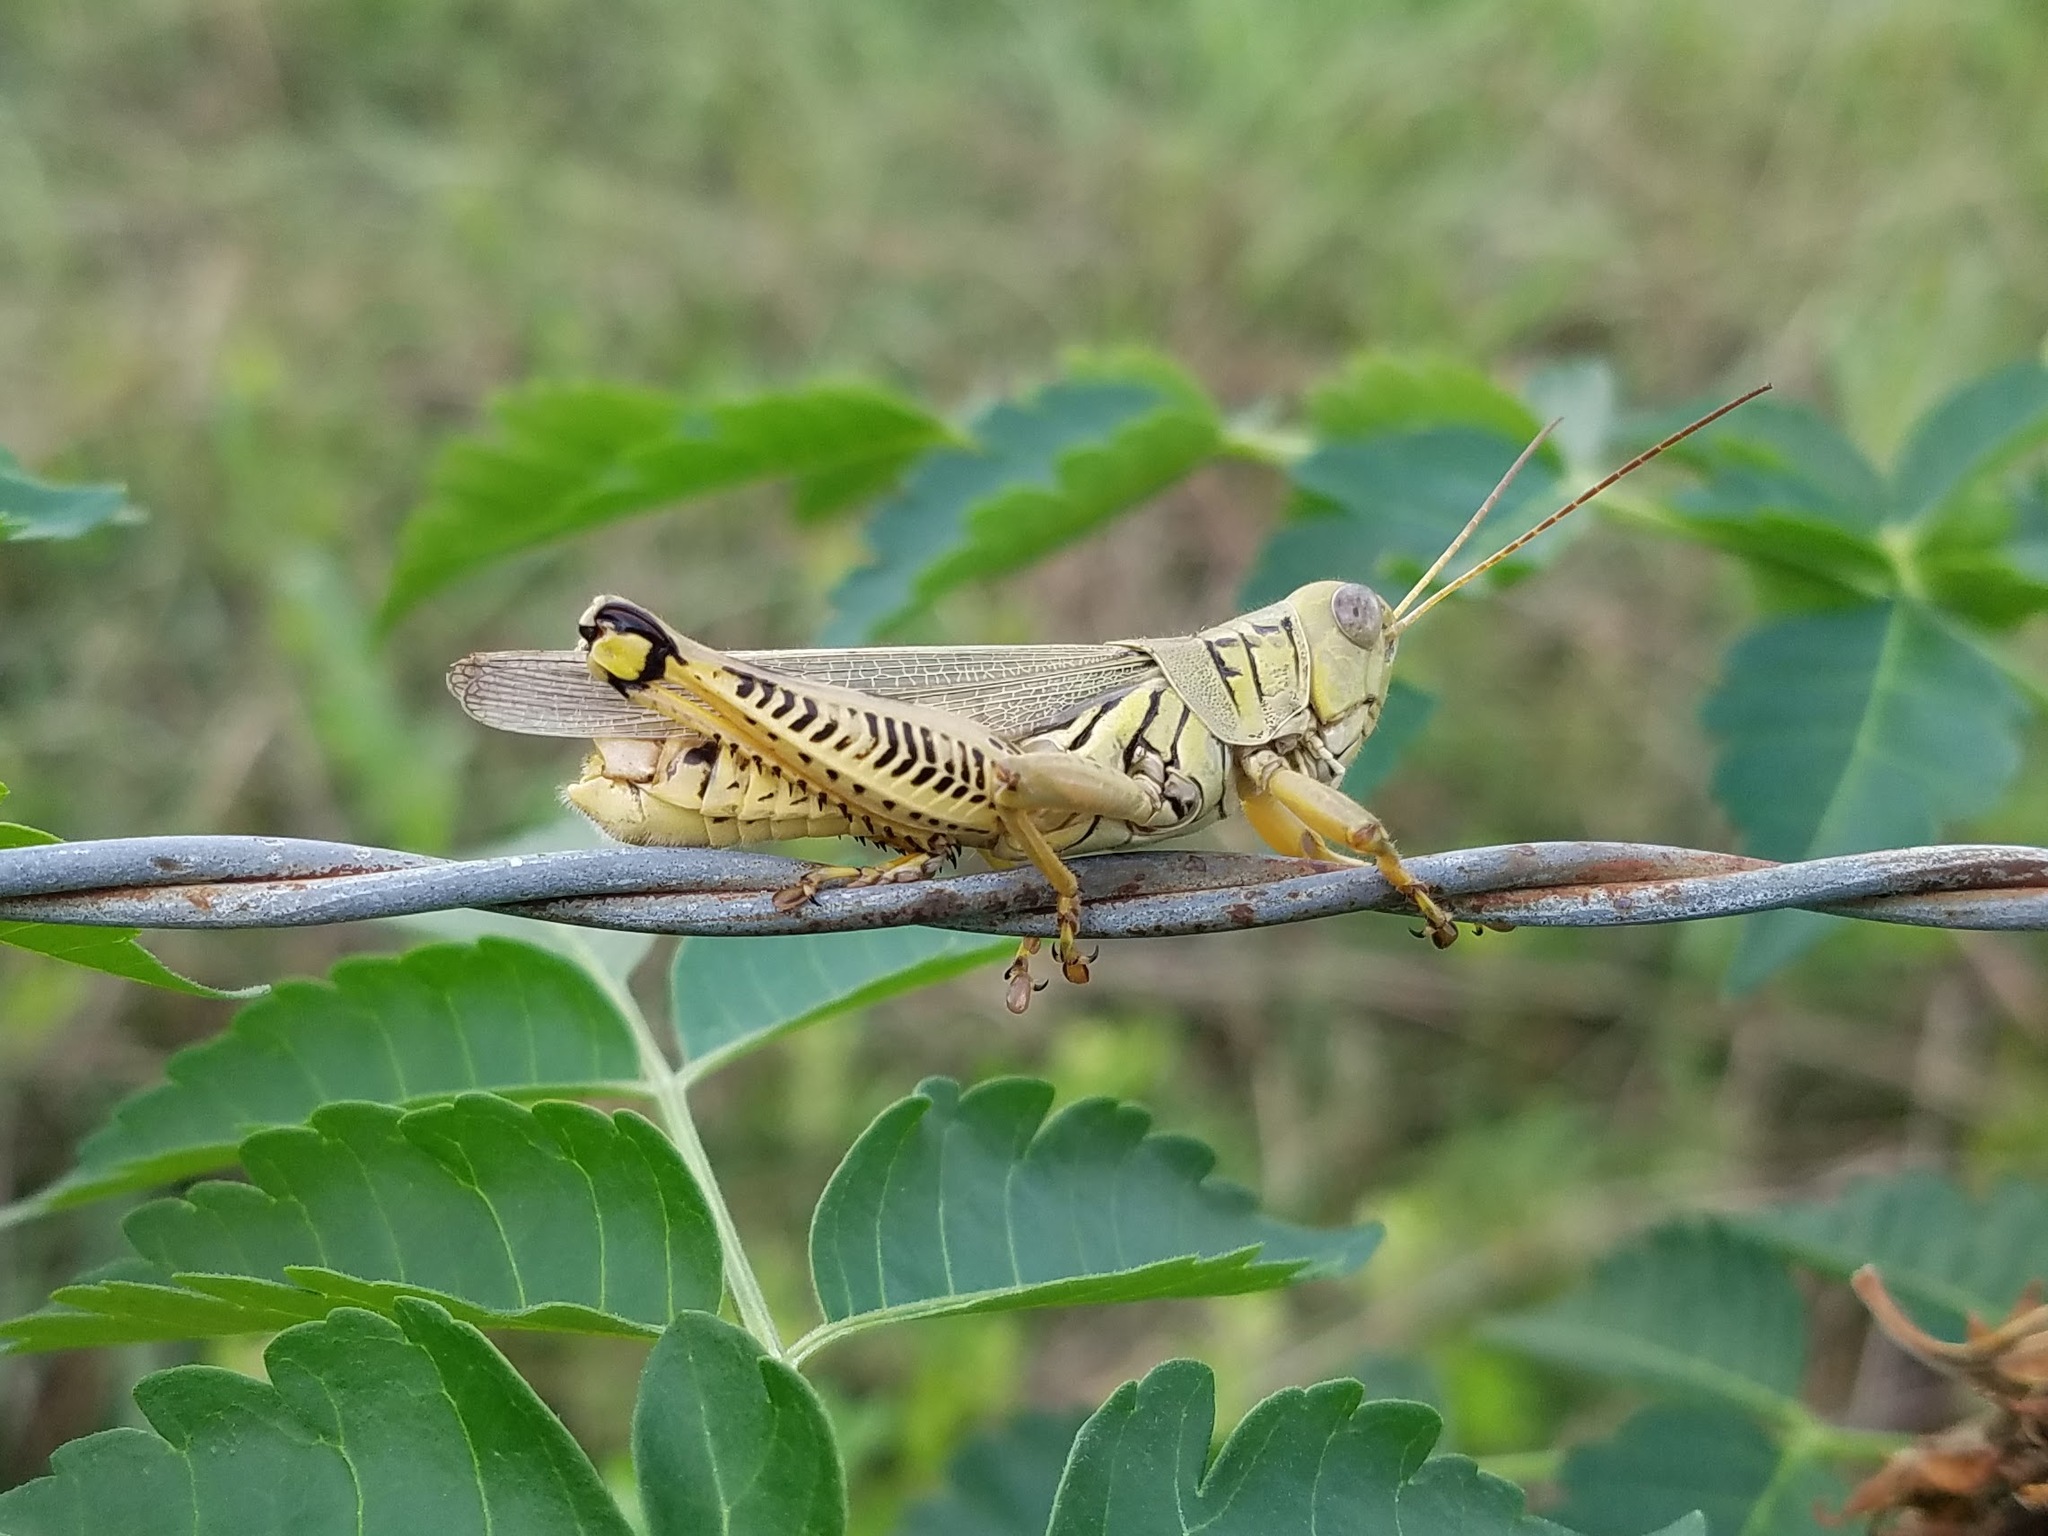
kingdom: Animalia
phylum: Arthropoda
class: Insecta
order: Orthoptera
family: Acrididae
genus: Melanoplus
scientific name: Melanoplus differentialis
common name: Differential grasshopper
